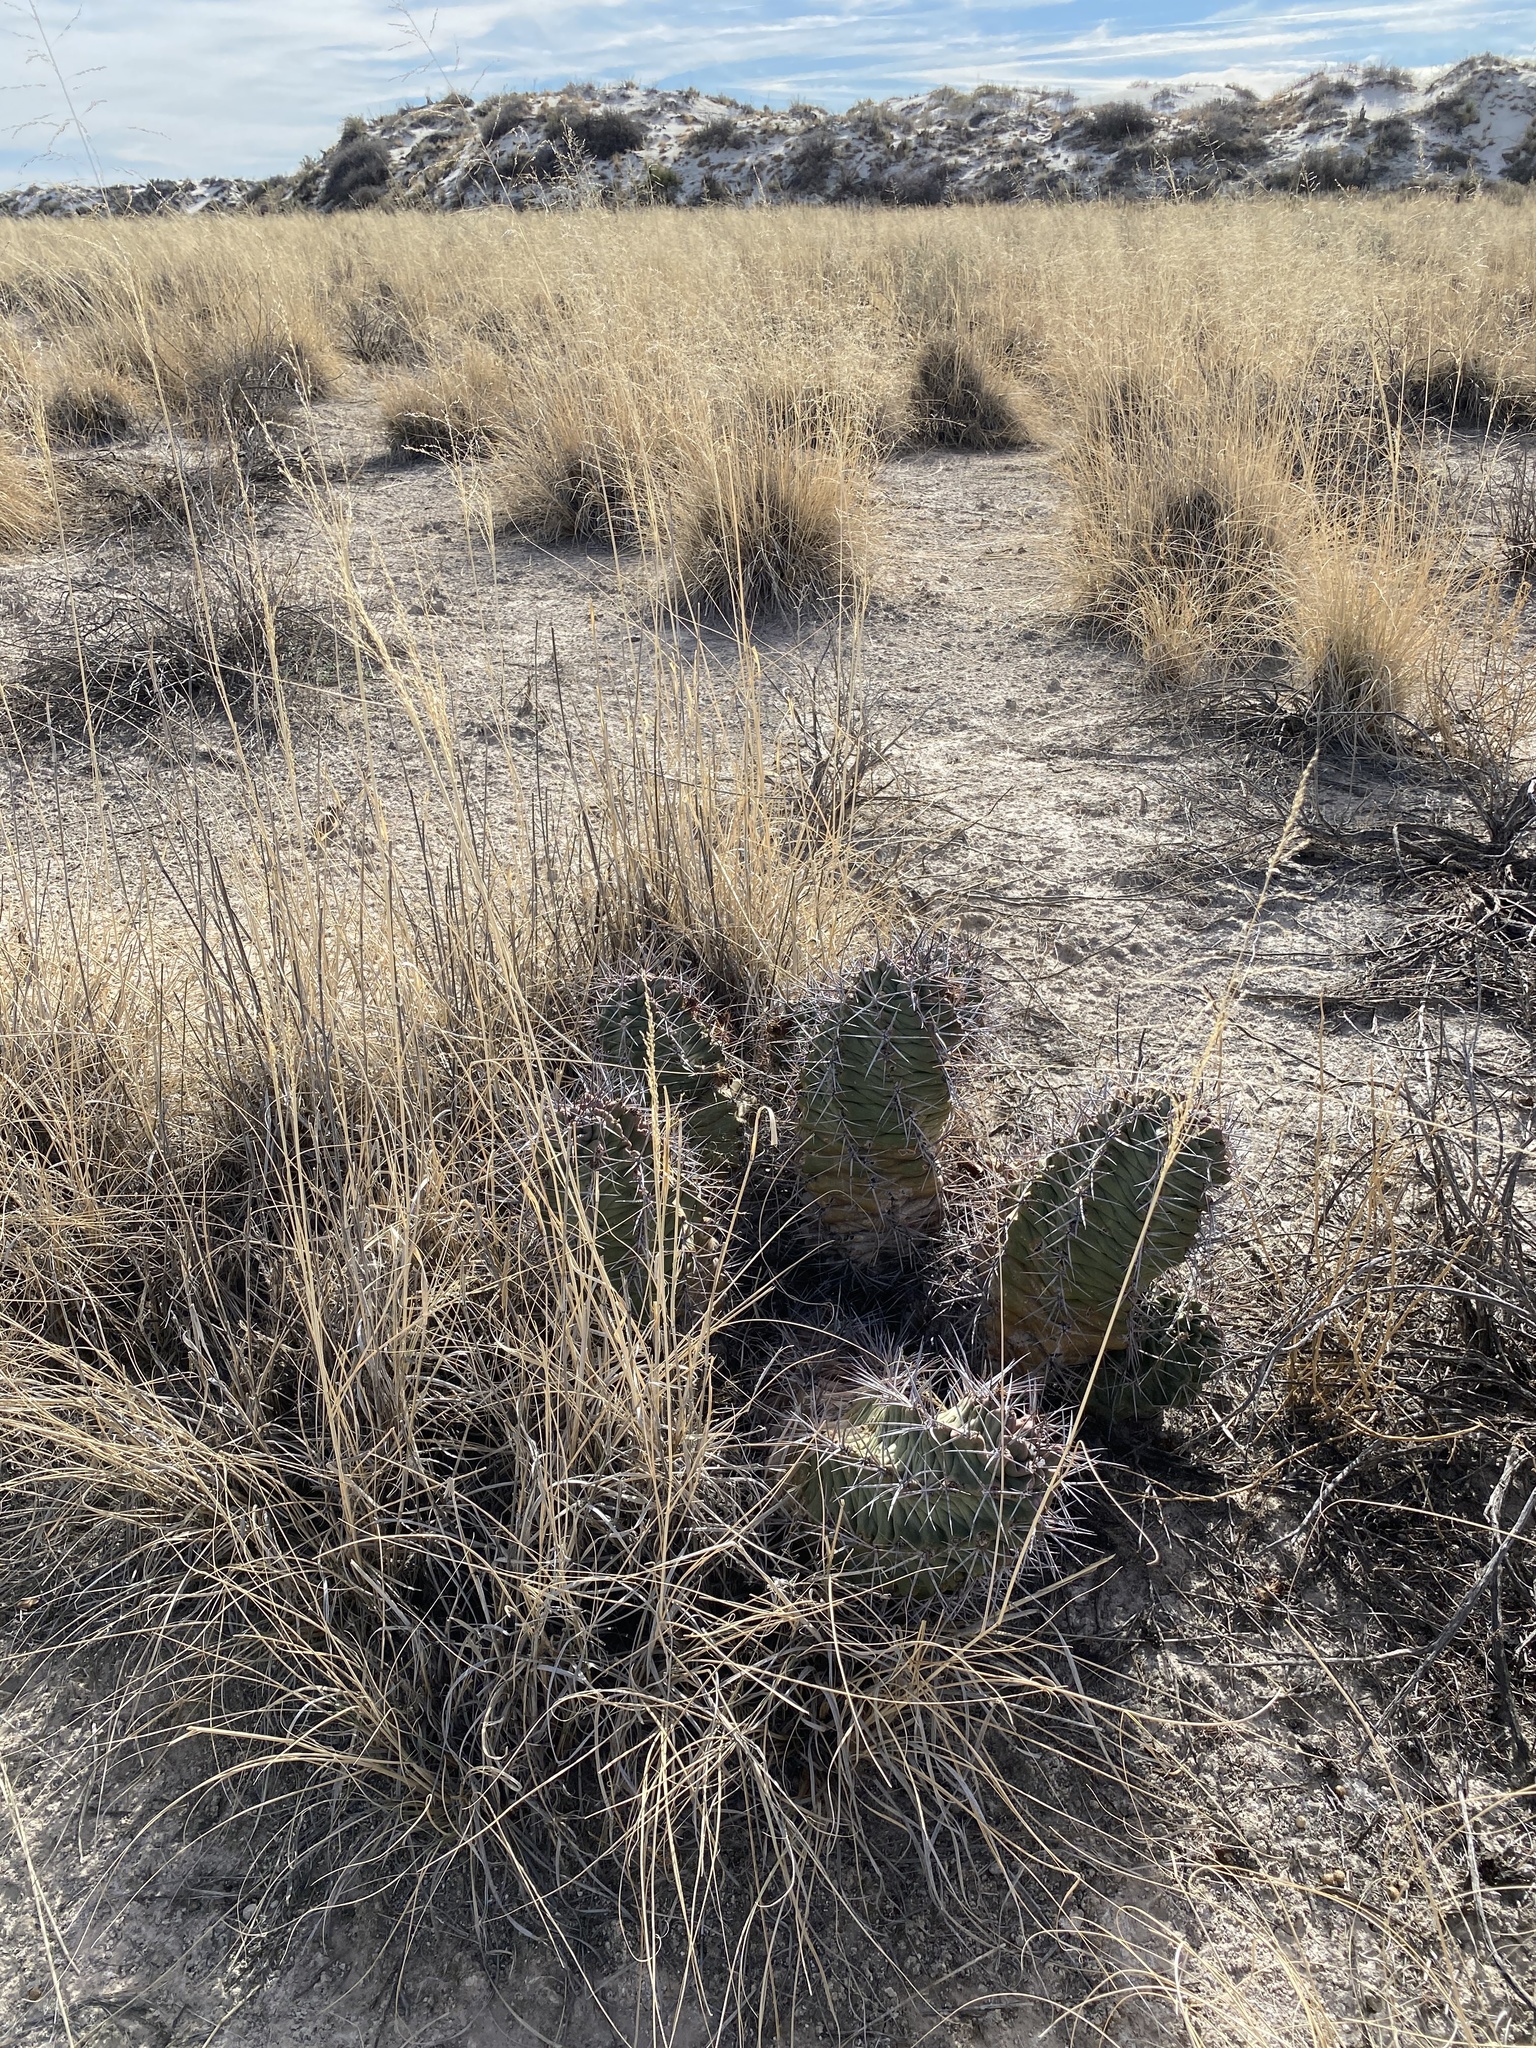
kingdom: Plantae
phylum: Tracheophyta
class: Magnoliopsida
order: Caryophyllales
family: Cactaceae
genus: Echinocereus
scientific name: Echinocereus triglochidiatus
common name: Claretcup hedgehog
